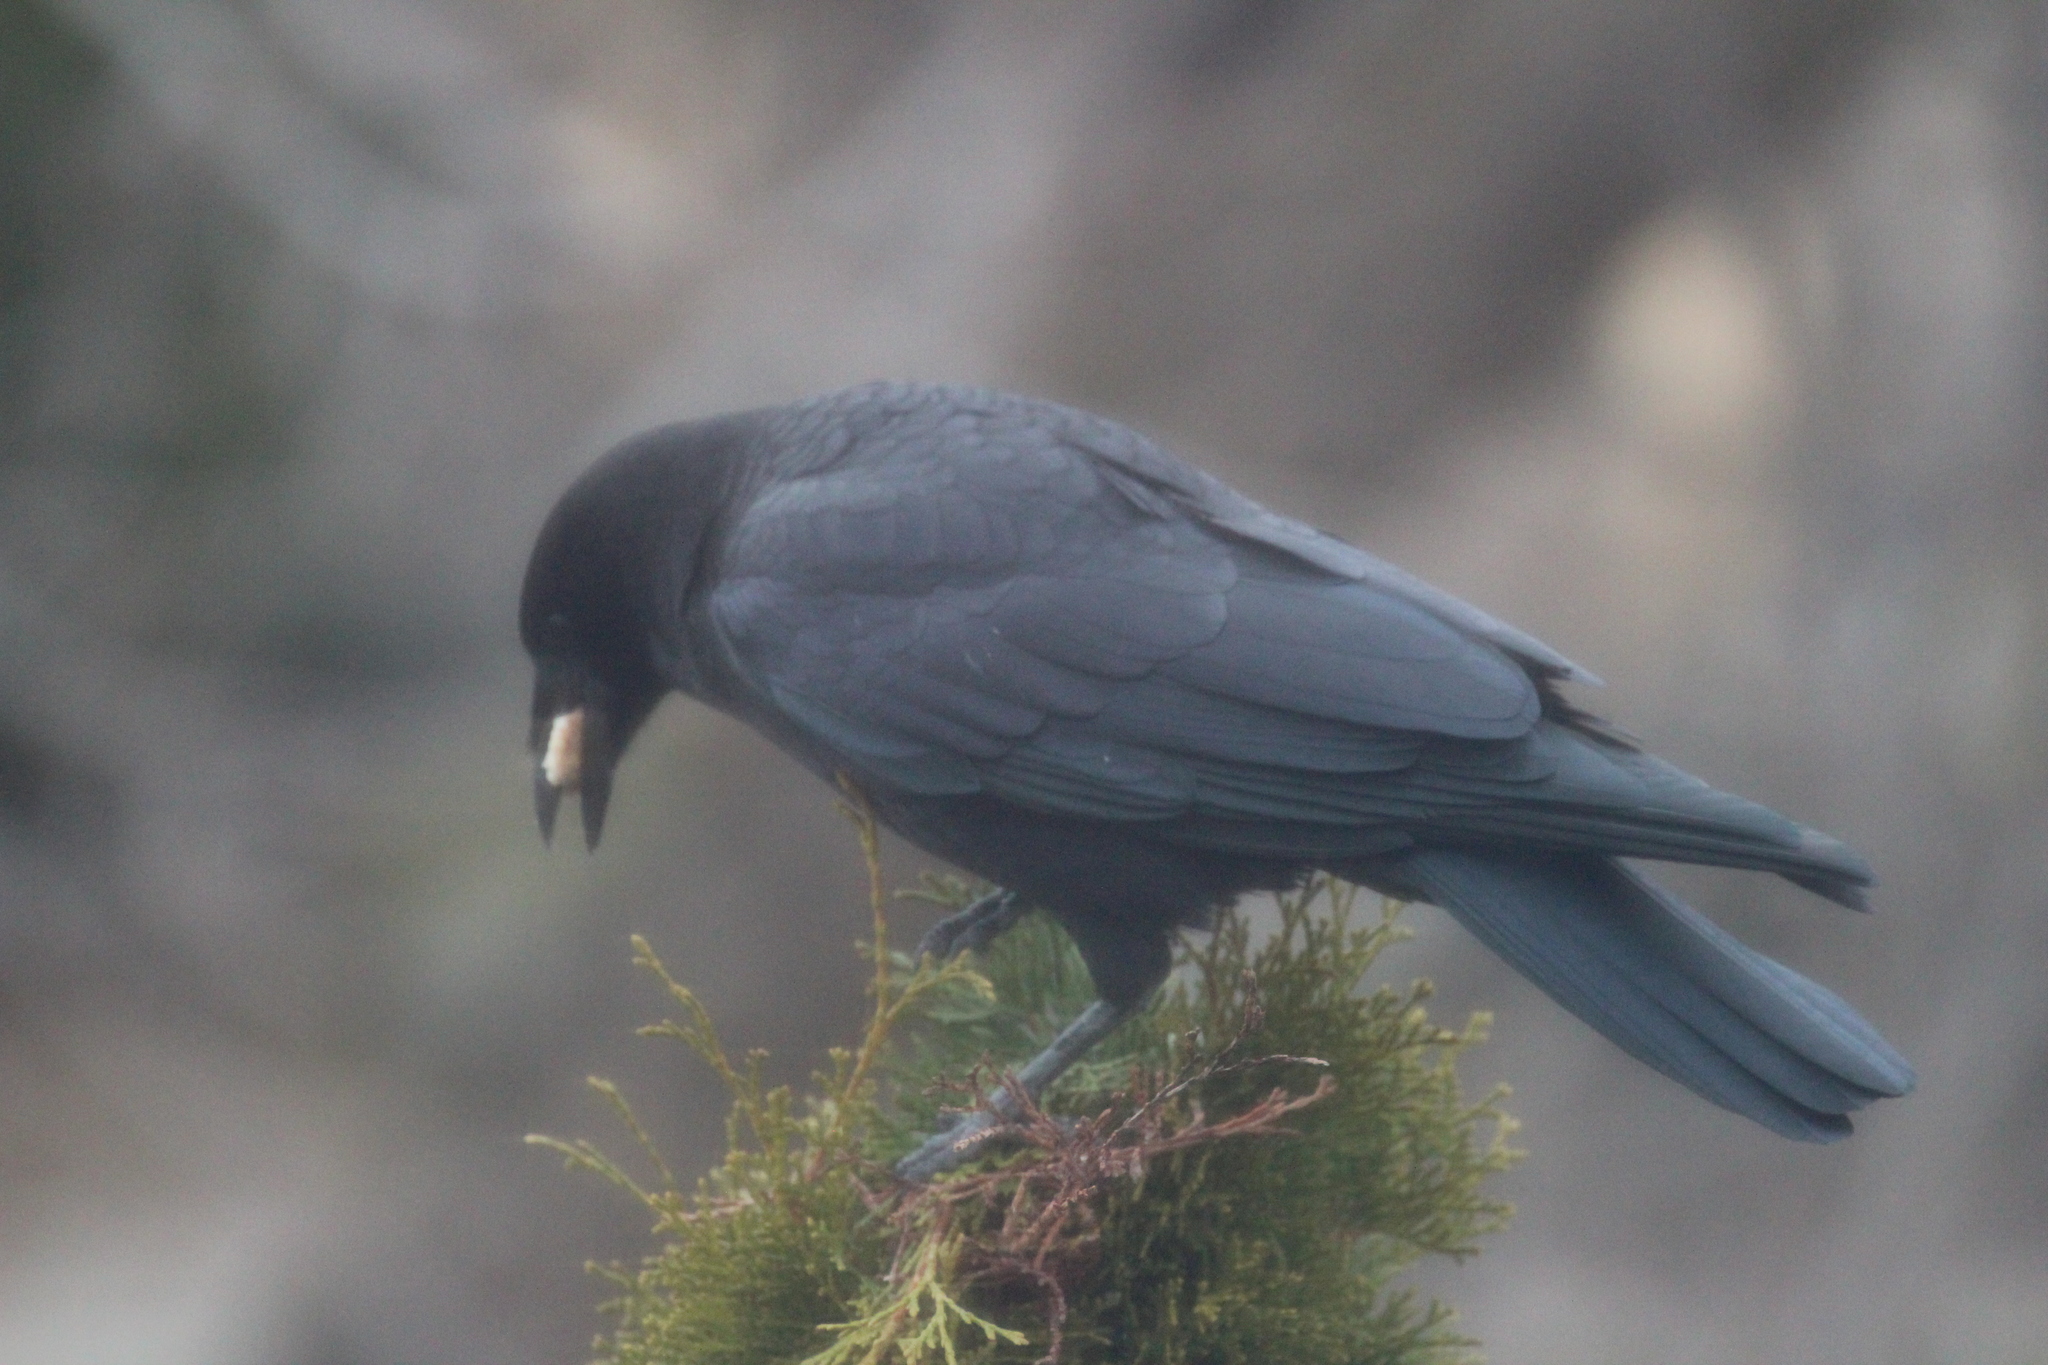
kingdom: Animalia
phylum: Chordata
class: Aves
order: Passeriformes
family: Corvidae
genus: Corvus
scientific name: Corvus brachyrhynchos
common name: American crow
